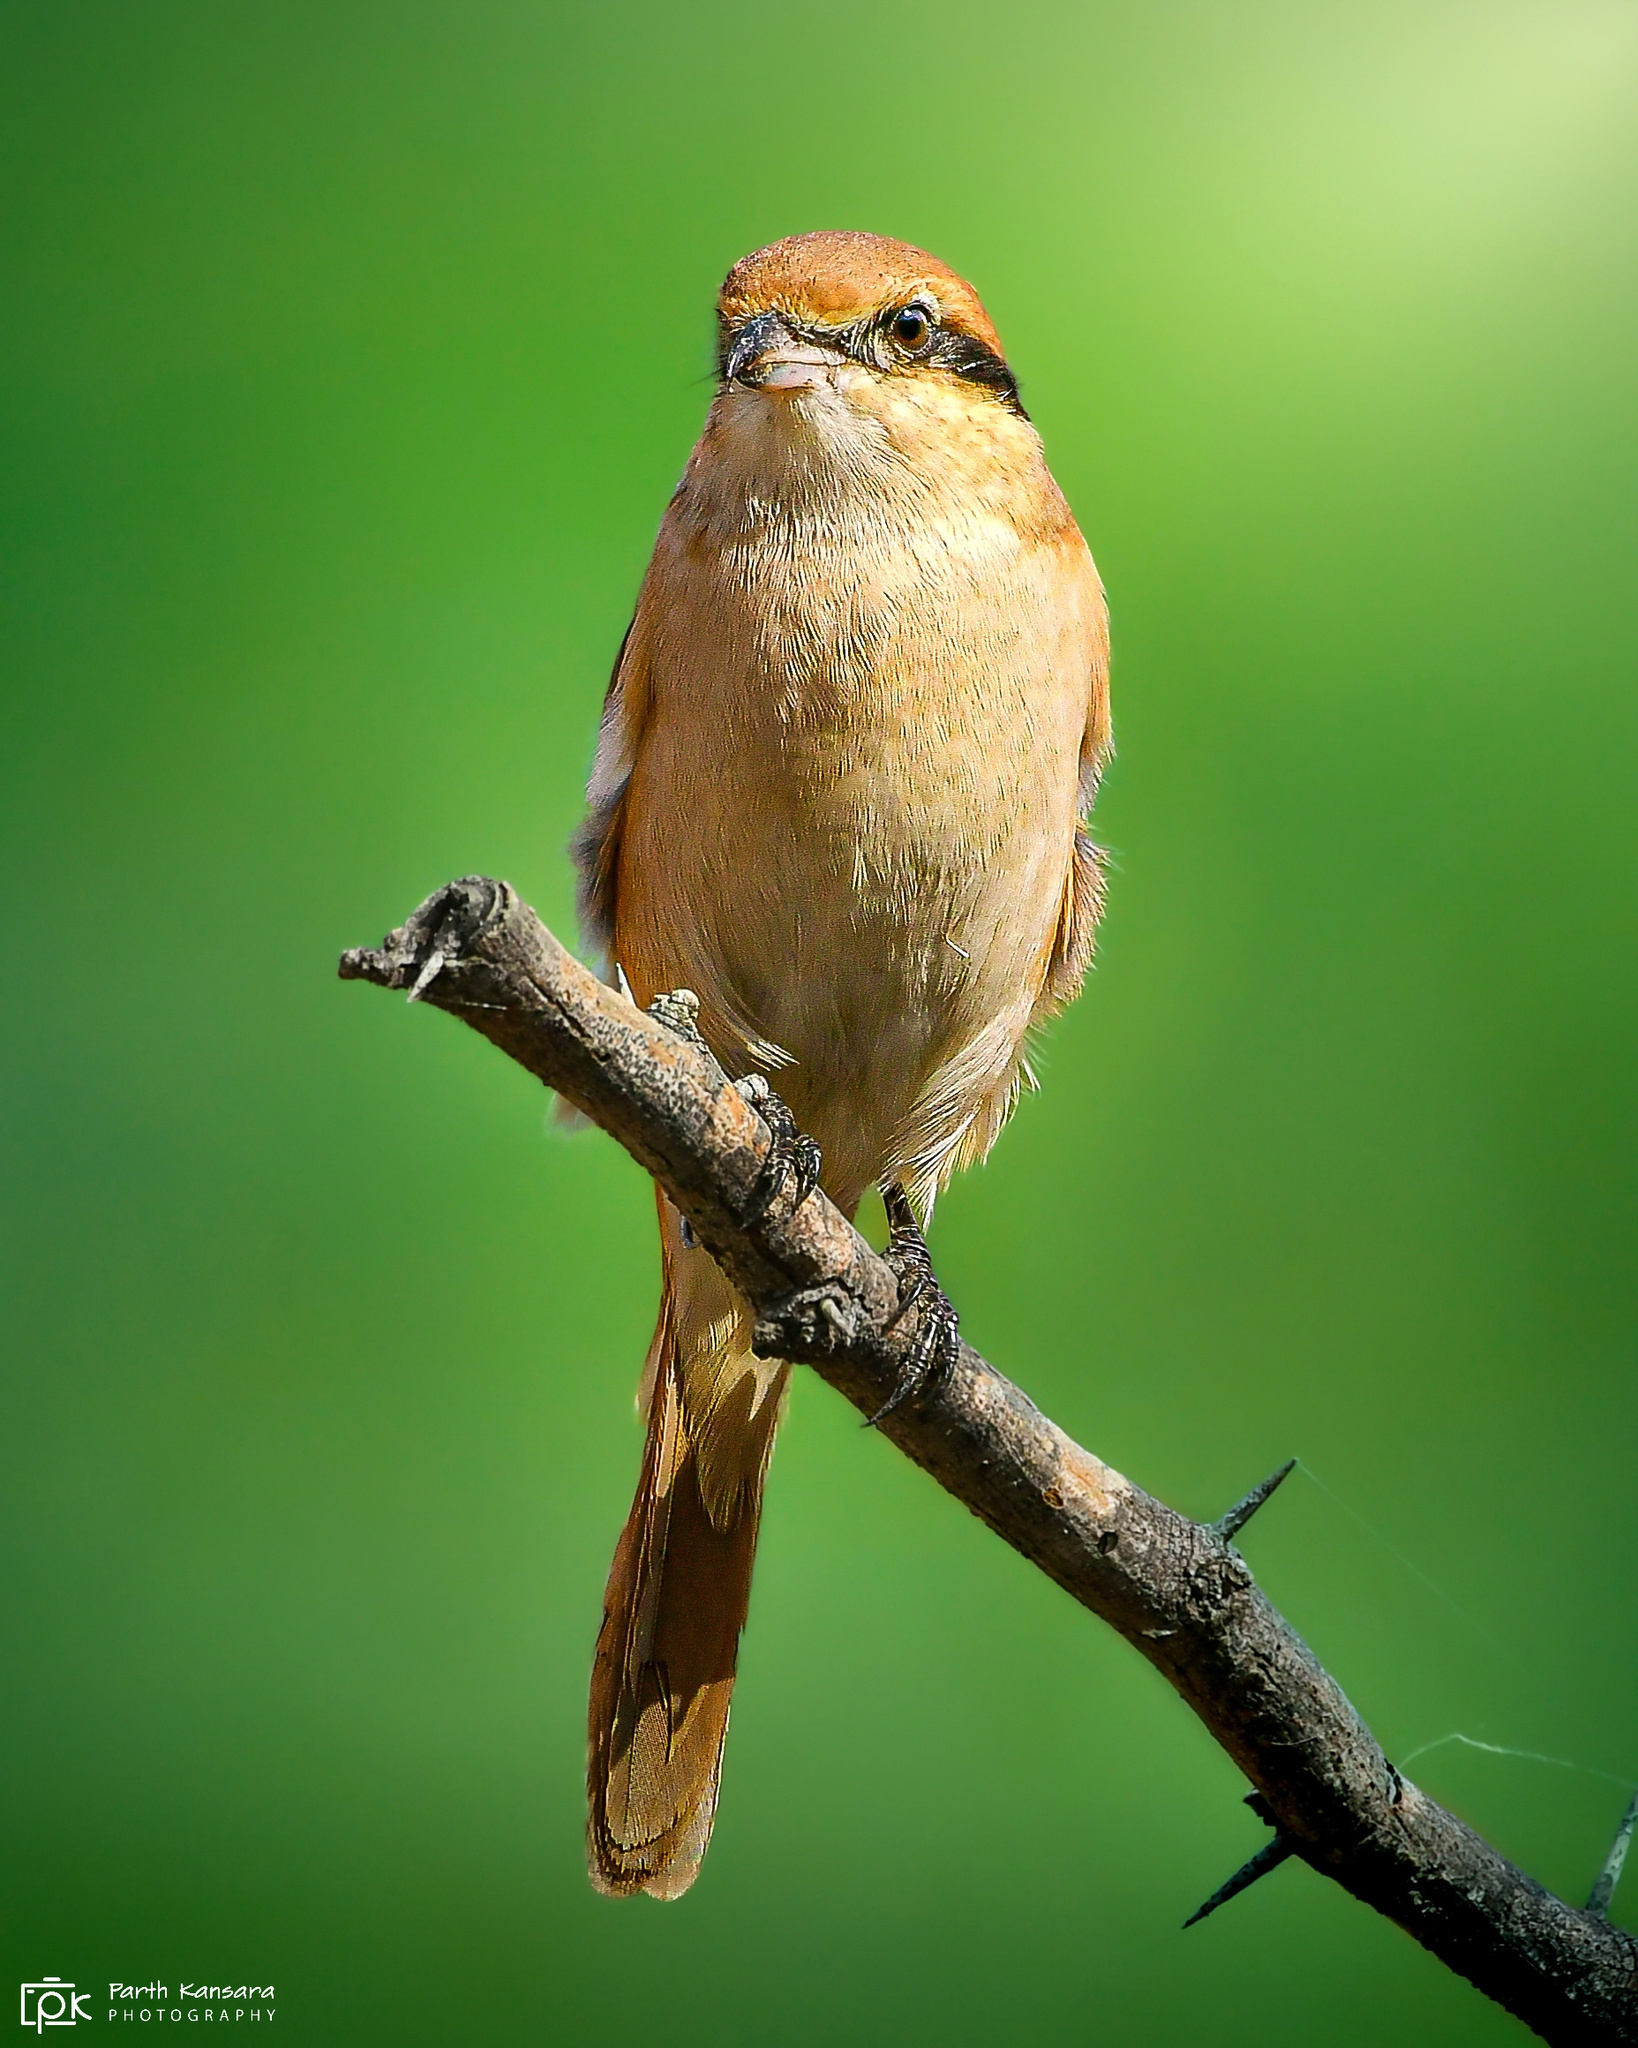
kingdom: Animalia
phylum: Chordata
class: Aves
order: Passeriformes
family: Laniidae
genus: Lanius
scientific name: Lanius isabellinus
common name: Isabelline shrike
